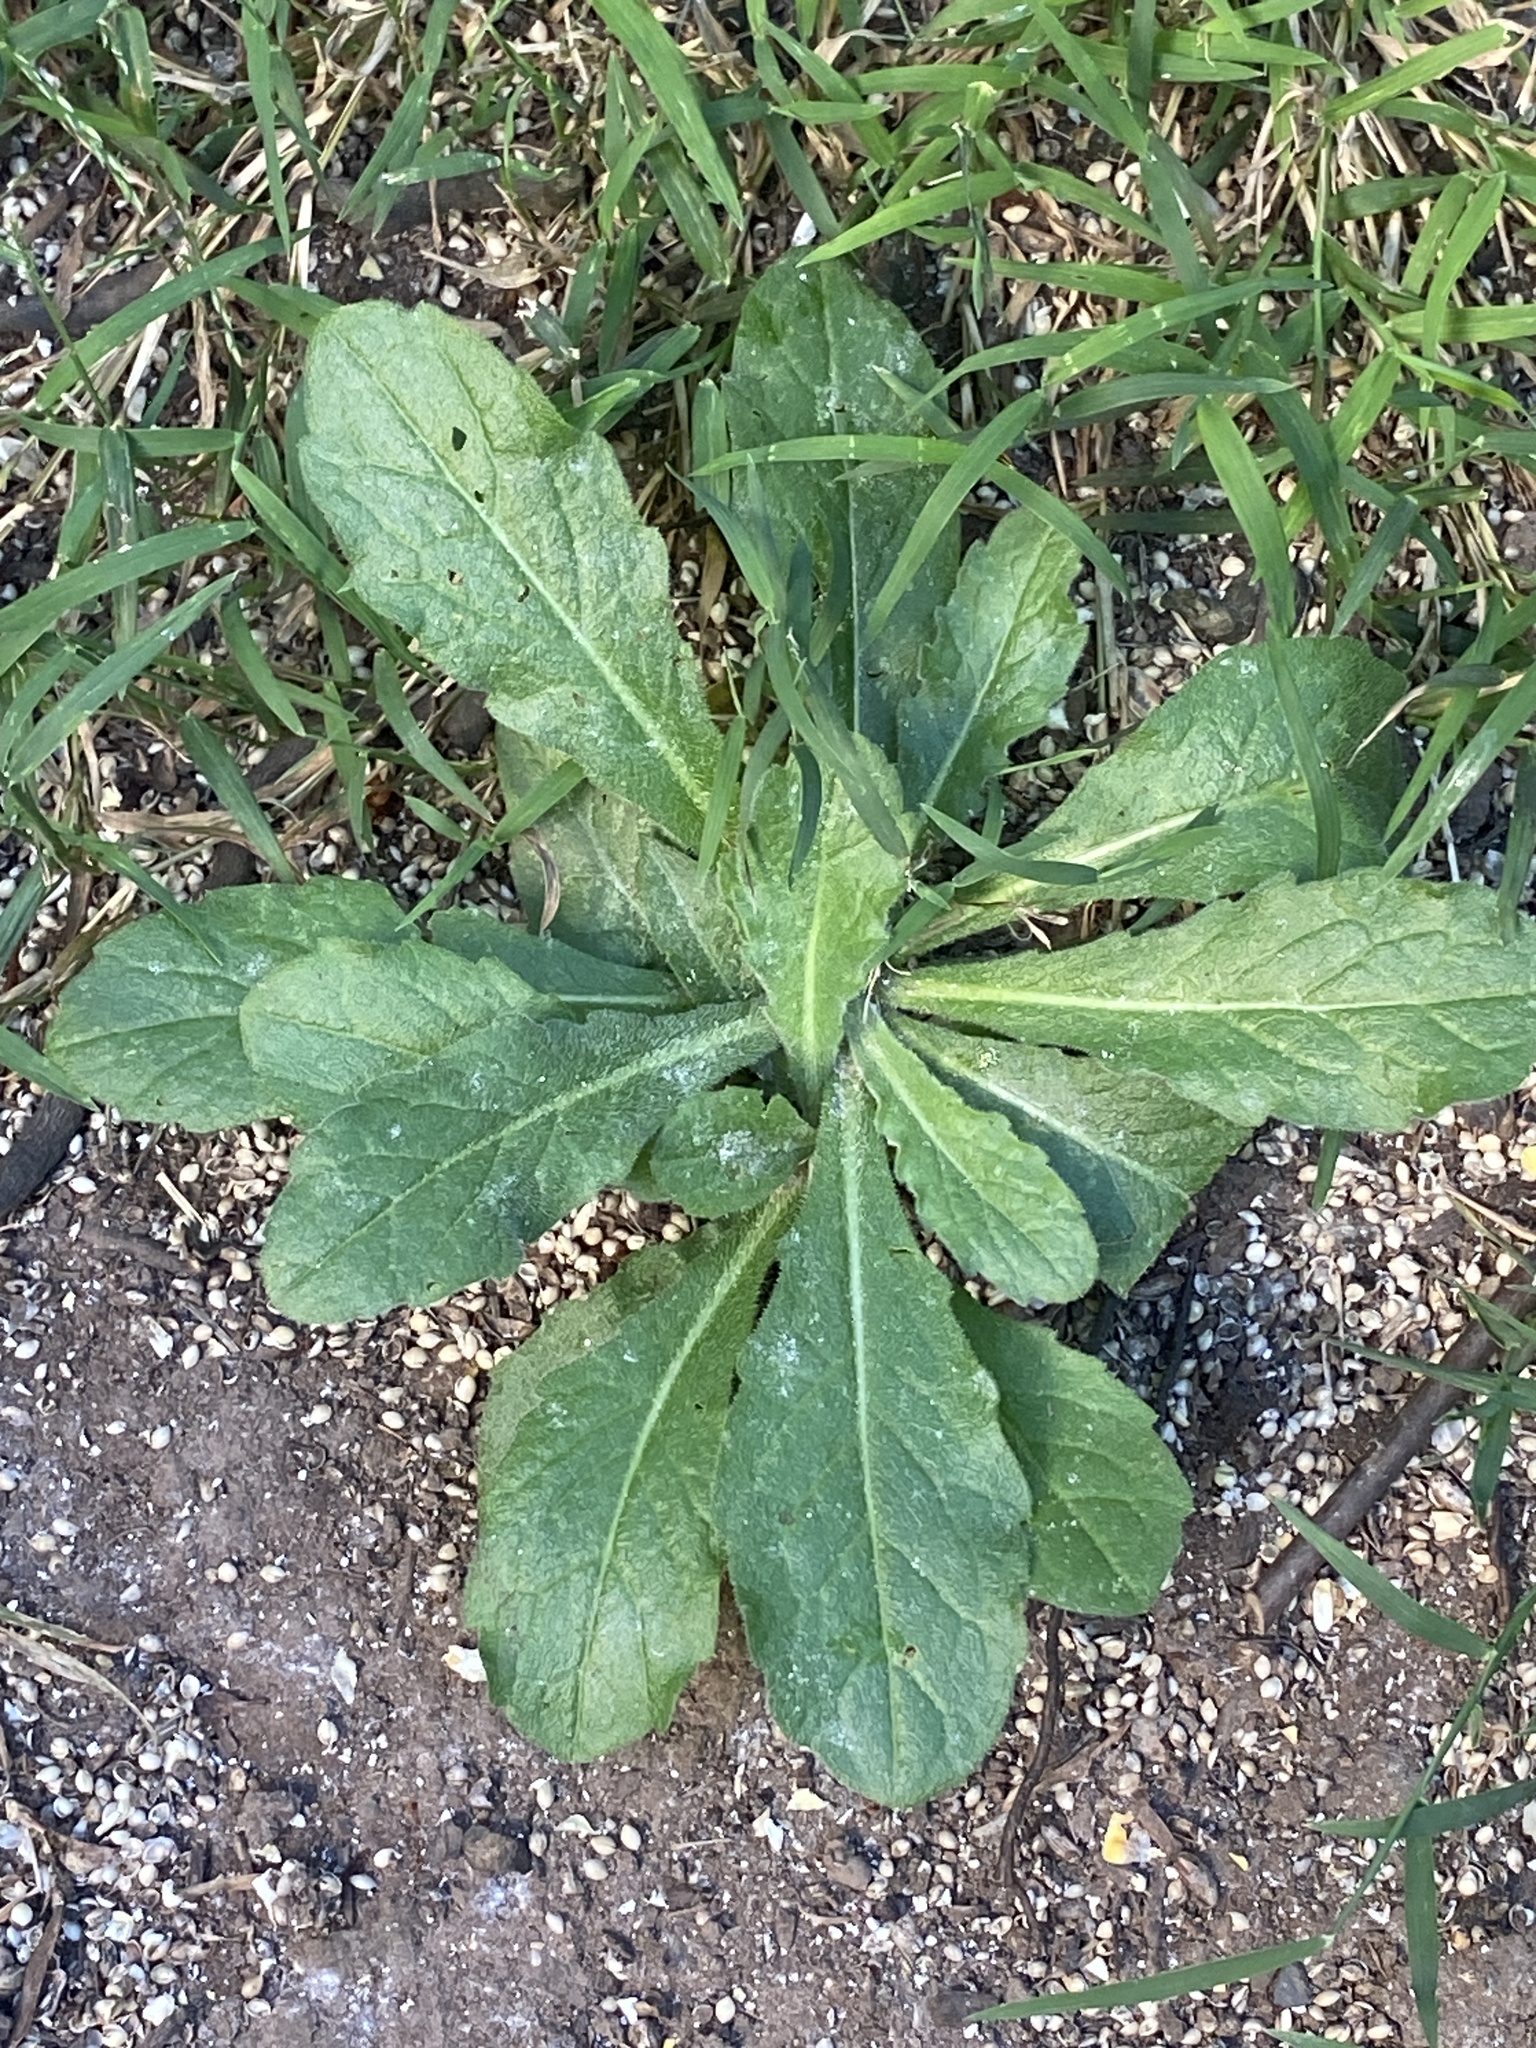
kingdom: Plantae
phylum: Tracheophyta
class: Magnoliopsida
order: Asterales
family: Asteraceae
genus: Erigeron
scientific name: Erigeron philadelphicus
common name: Robin's-plantain
